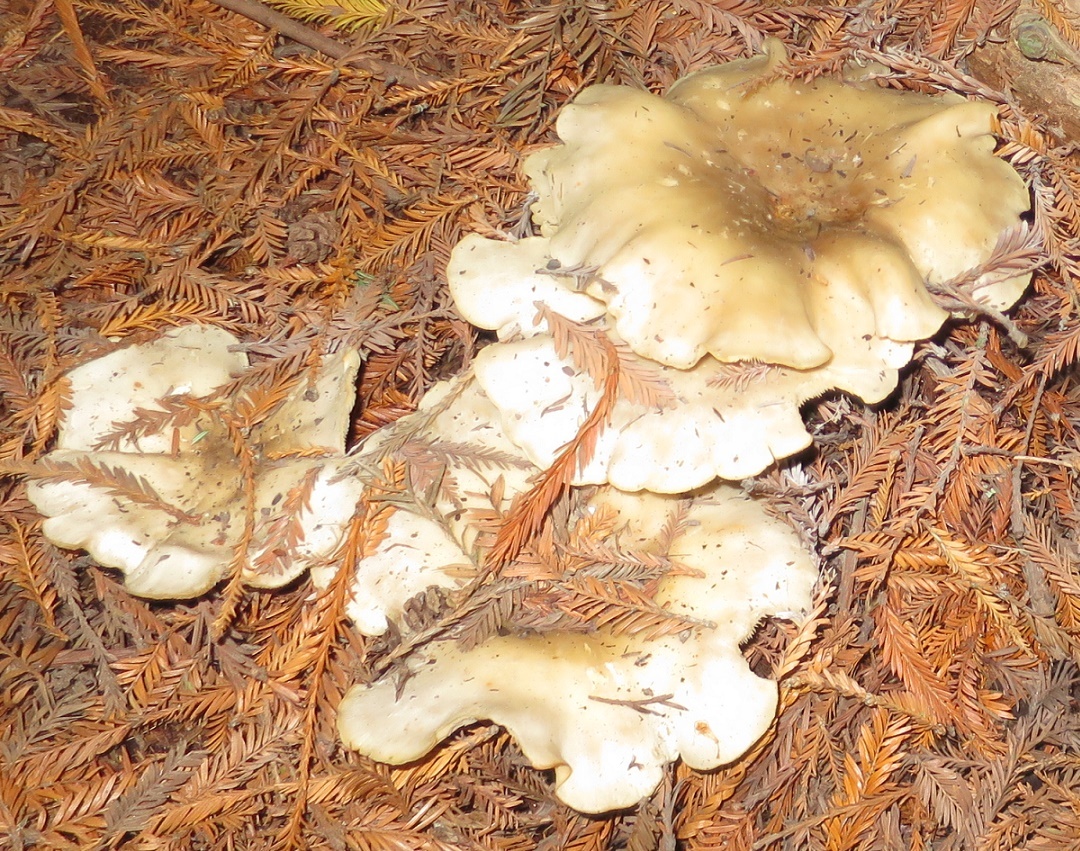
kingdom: Fungi
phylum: Basidiomycota
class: Agaricomycetes
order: Agaricales
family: Tricholomataceae
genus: Clitocybe
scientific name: Clitocybe nebularis
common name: Clouded agaric
